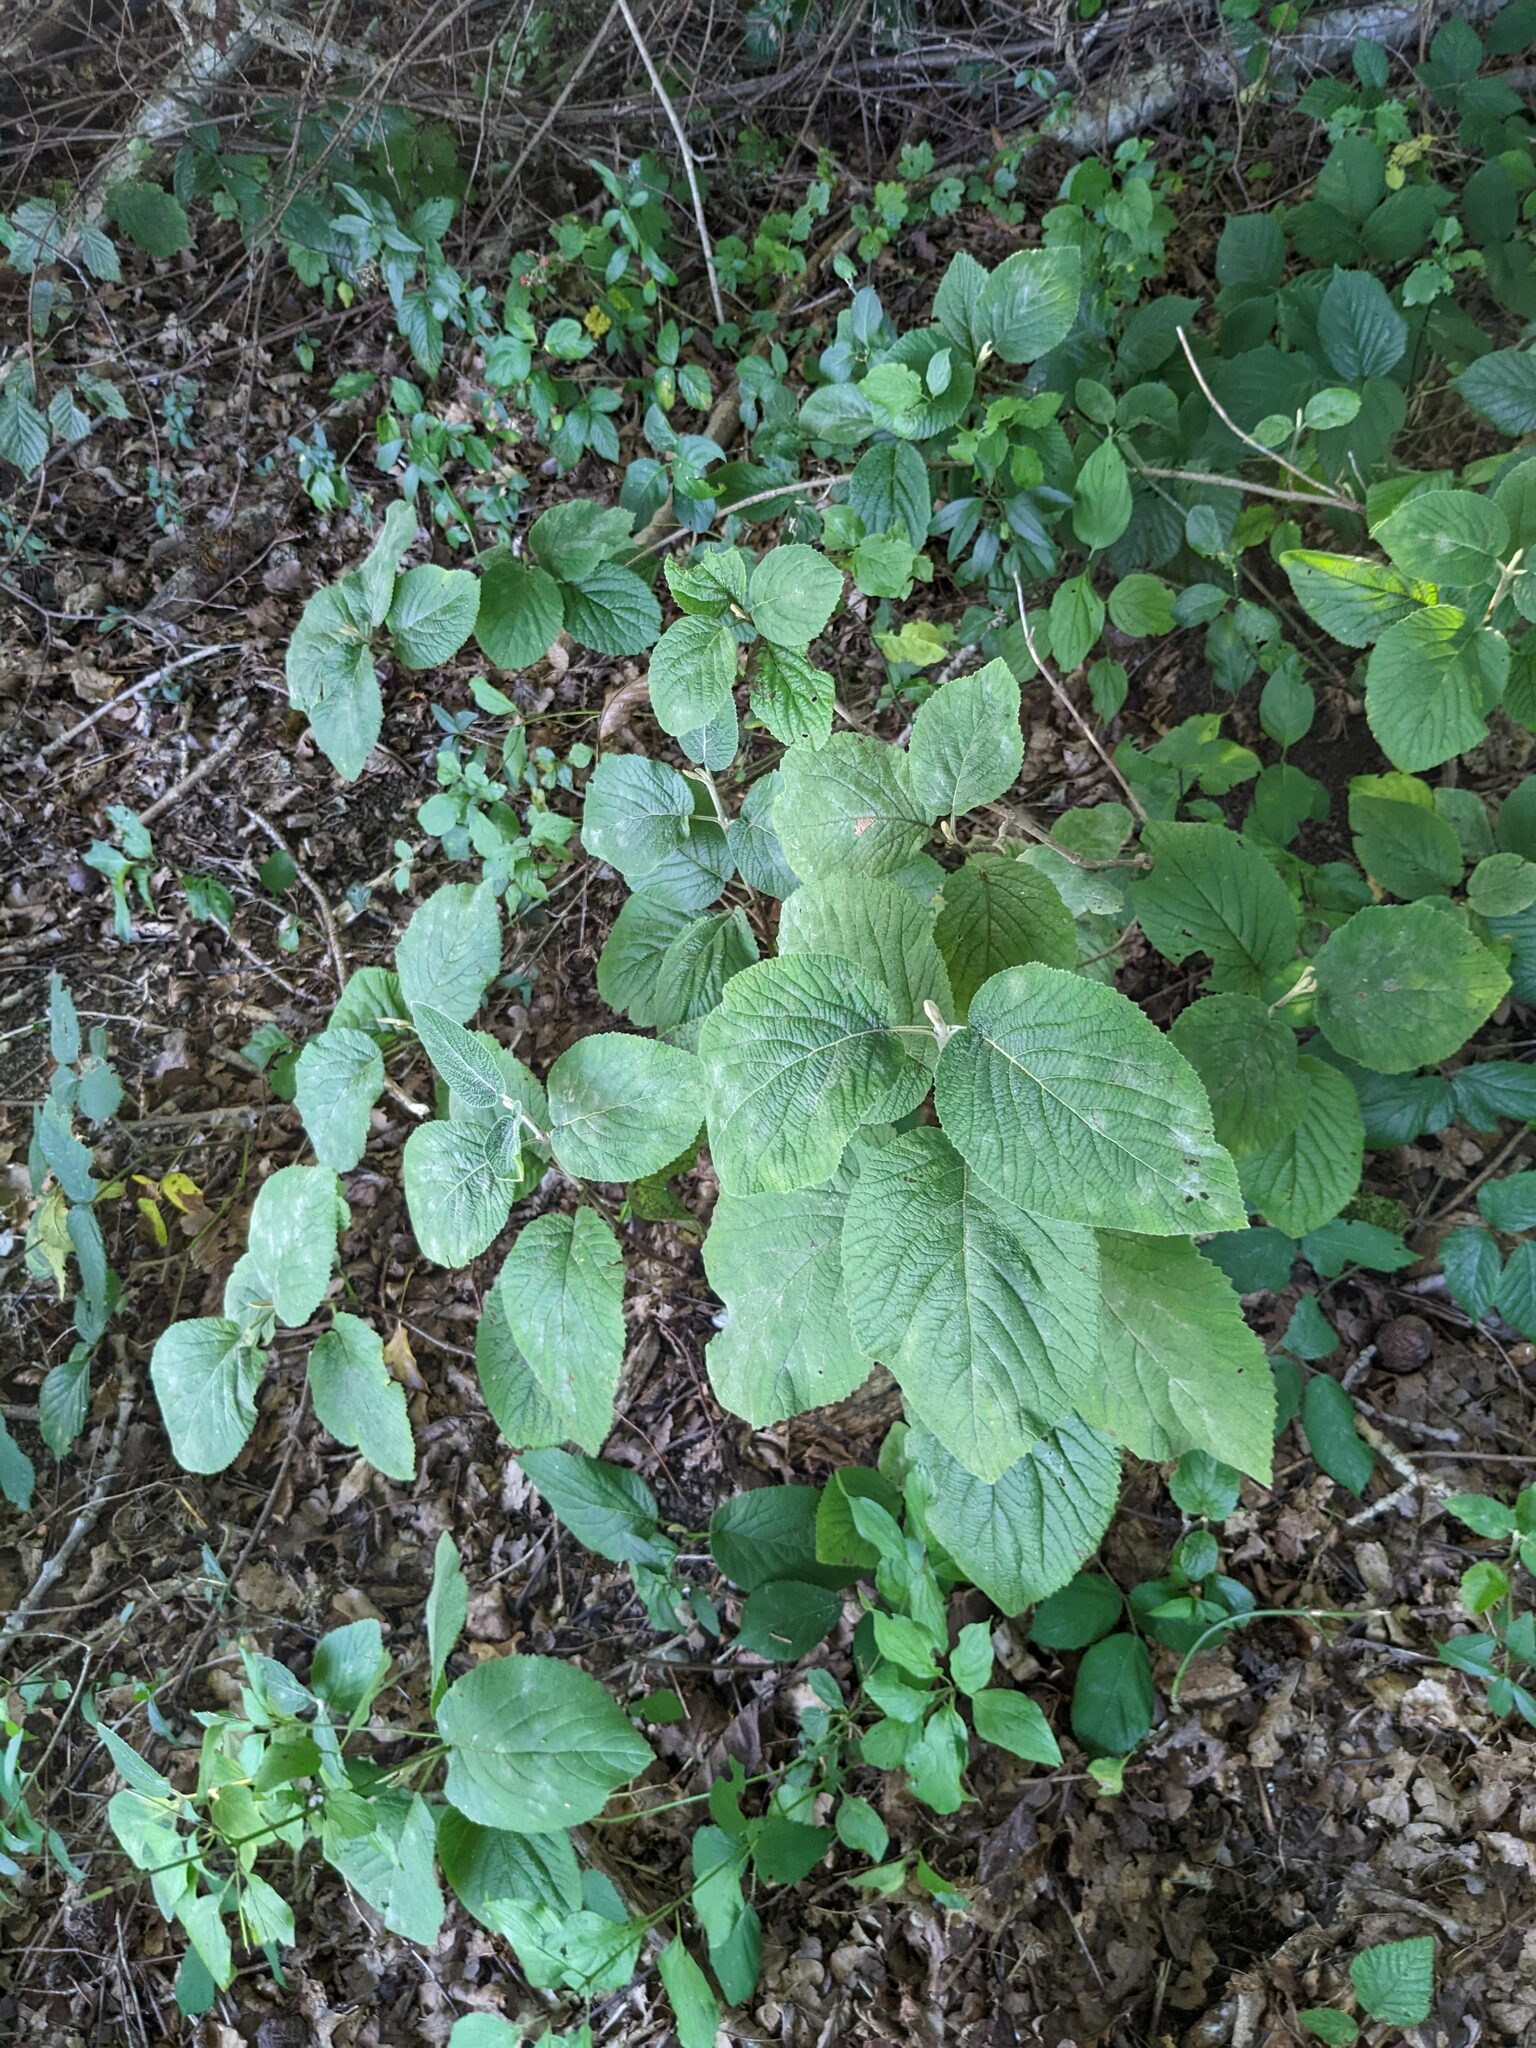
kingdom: Plantae
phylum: Tracheophyta
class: Magnoliopsida
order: Dipsacales
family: Viburnaceae
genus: Viburnum
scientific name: Viburnum lantana
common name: Wayfaring tree
